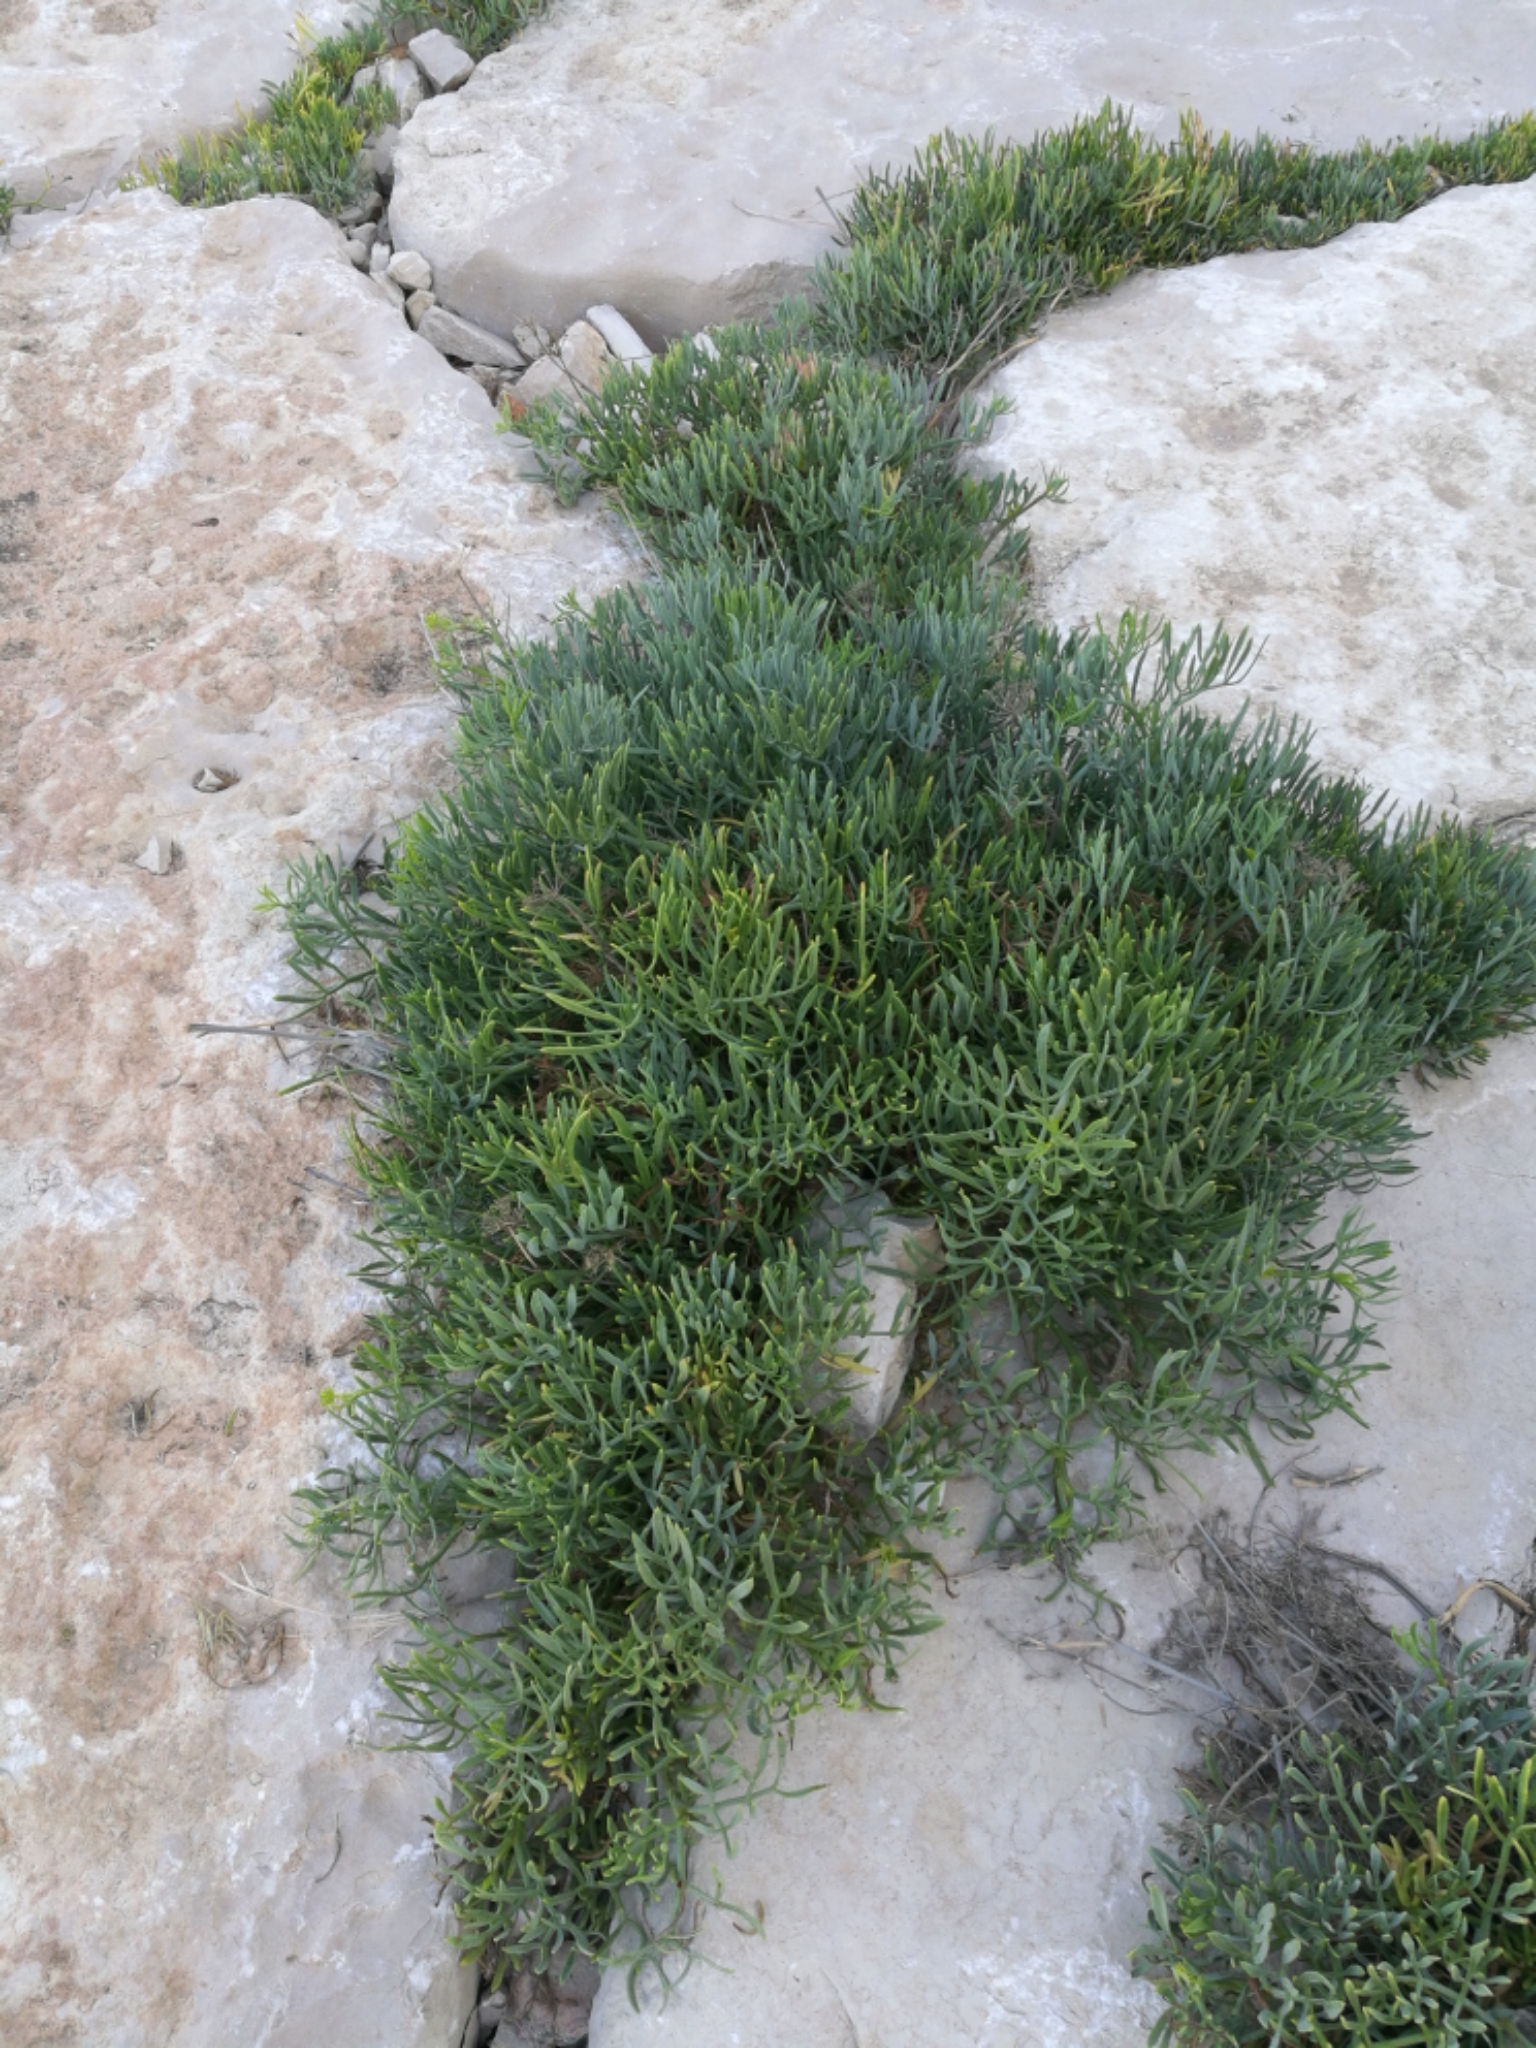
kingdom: Plantae
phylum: Tracheophyta
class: Magnoliopsida
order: Apiales
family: Apiaceae
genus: Crithmum
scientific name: Crithmum maritimum
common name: Rock samphire
